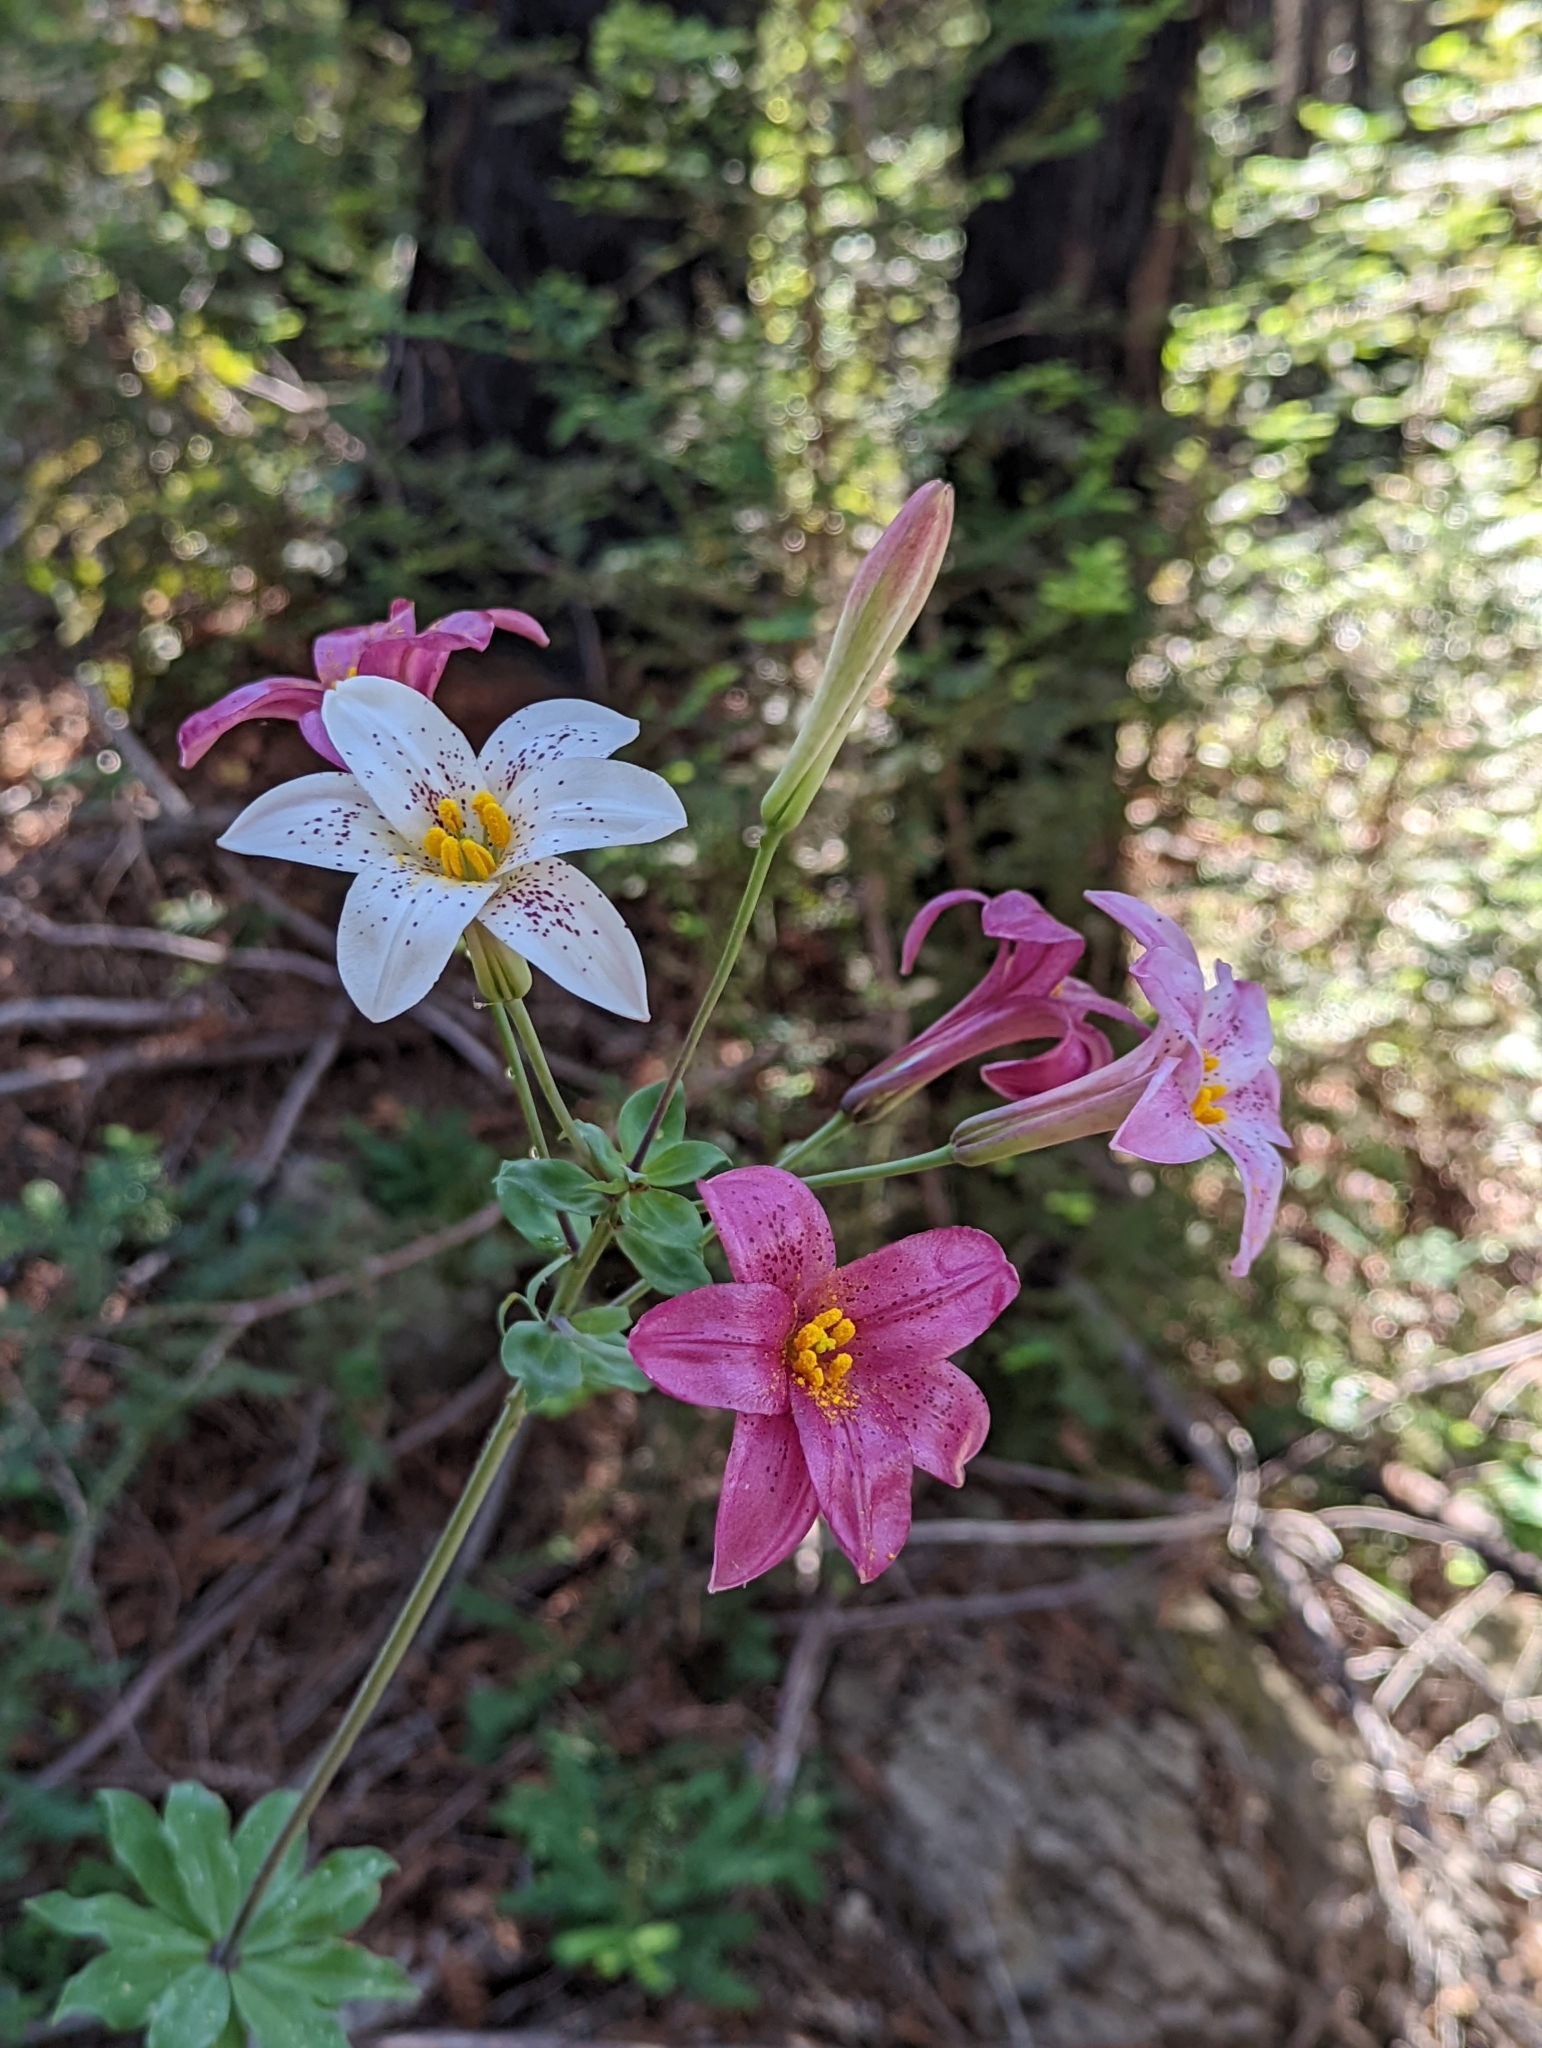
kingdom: Plantae
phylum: Tracheophyta
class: Liliopsida
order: Liliales
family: Liliaceae
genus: Lilium
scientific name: Lilium rubescens
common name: Chamise lily
